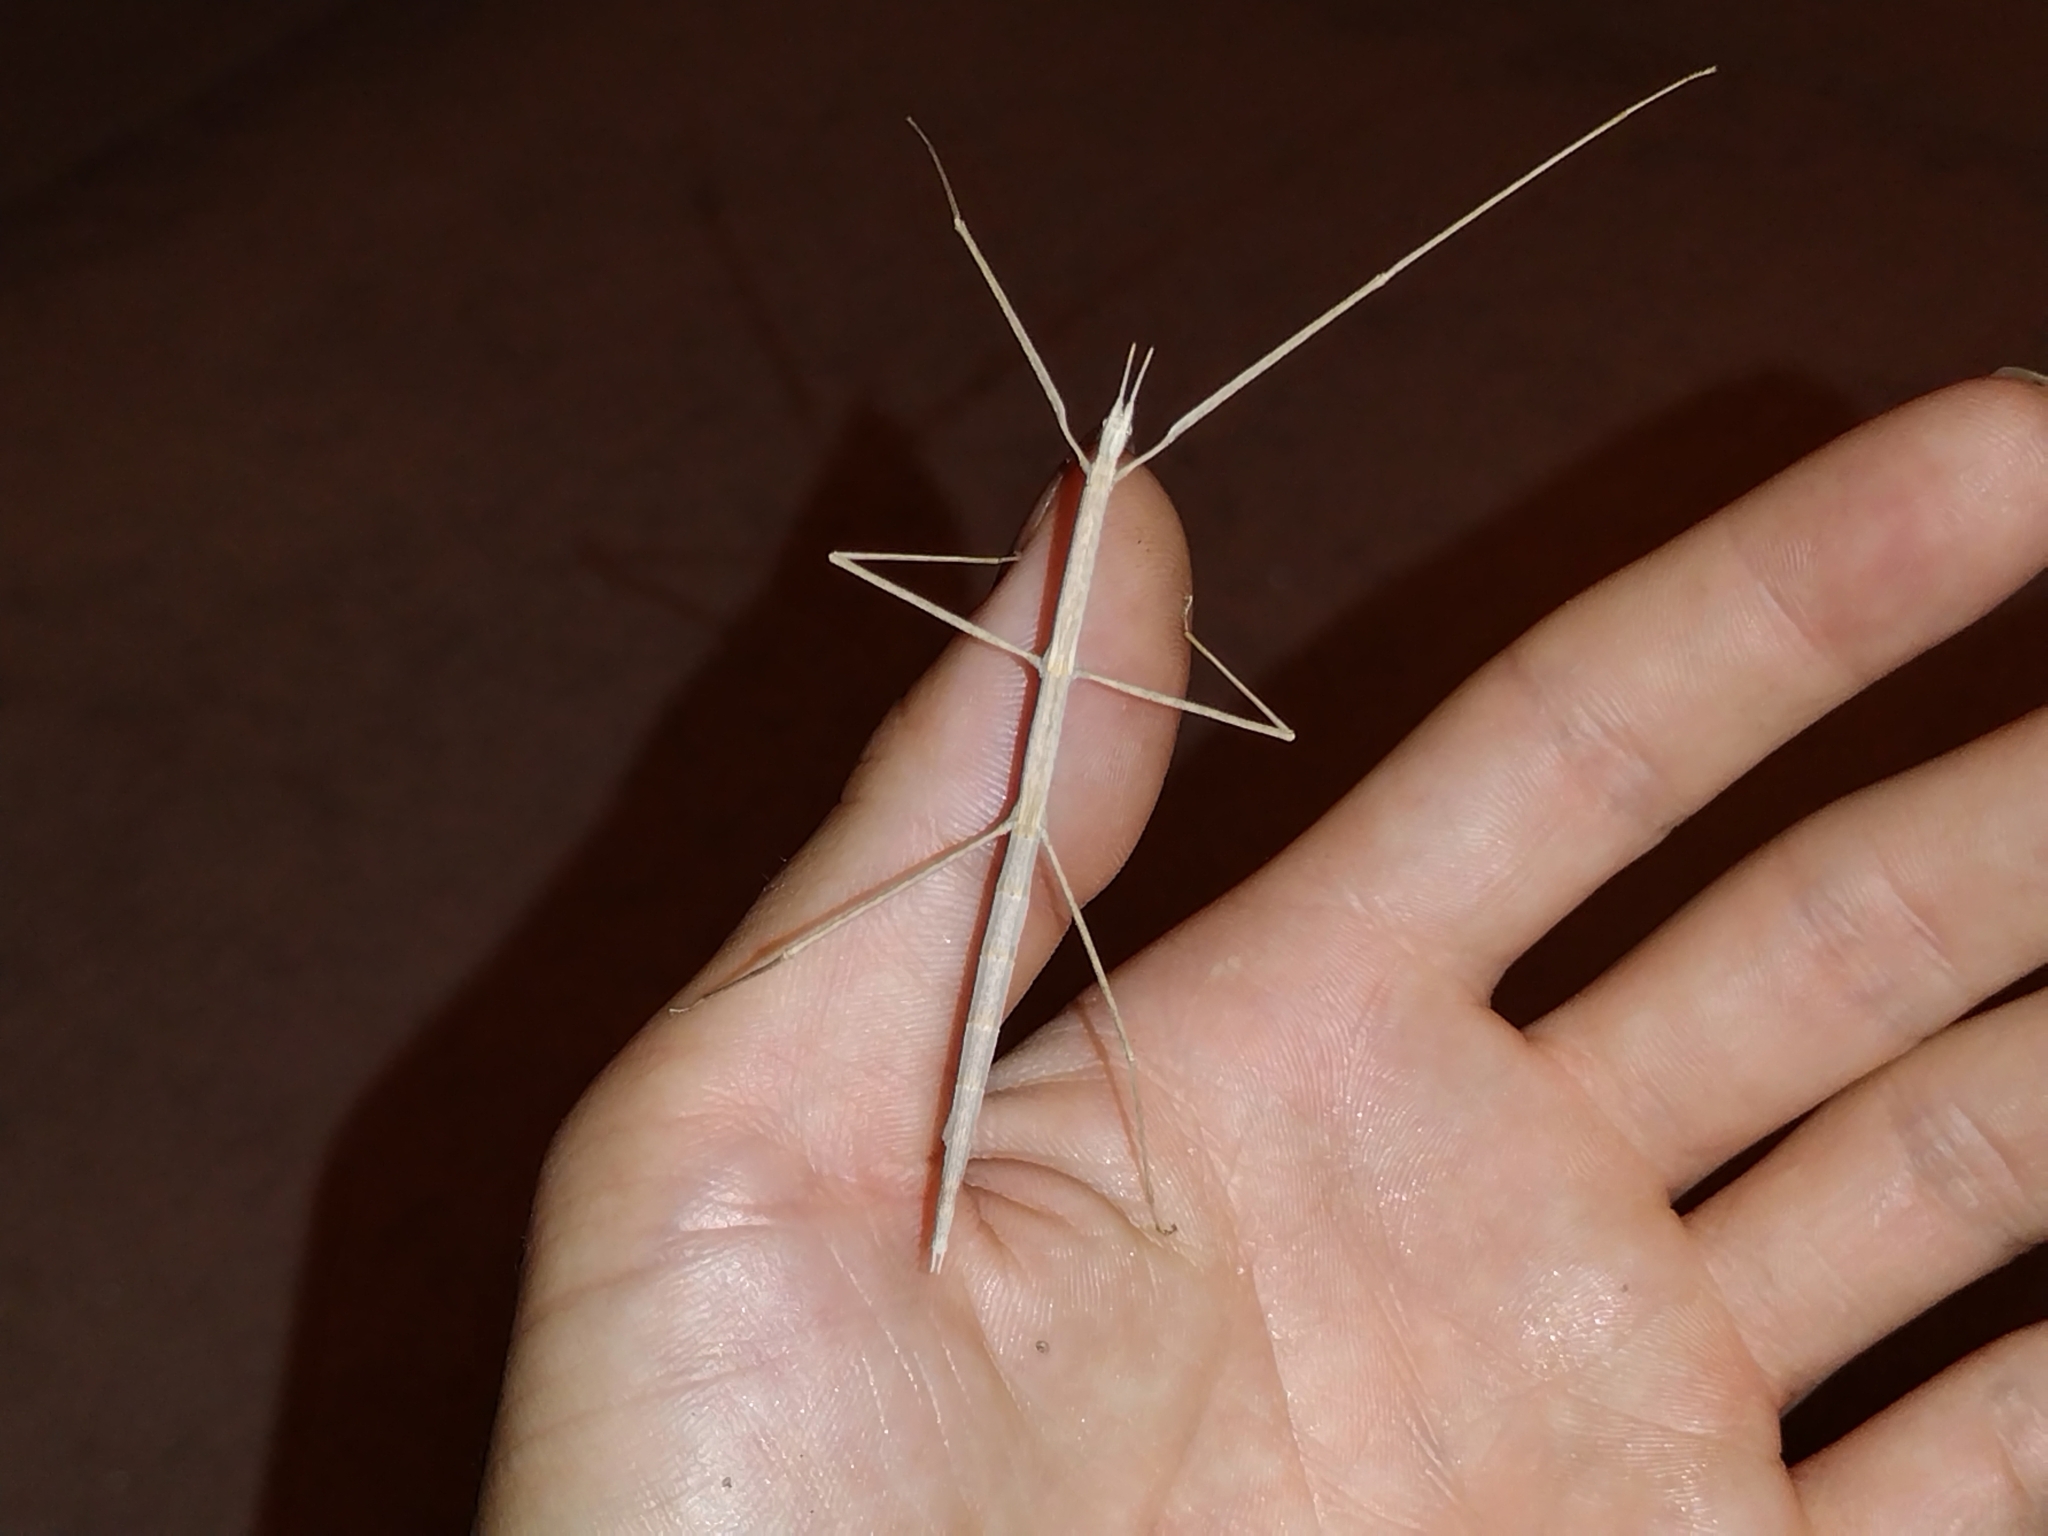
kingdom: Animalia
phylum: Arthropoda
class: Insecta
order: Phasmida
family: Heteronemiidae
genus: Parabacillus
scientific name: Parabacillus hesperus
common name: Western short-horned walkingstick
